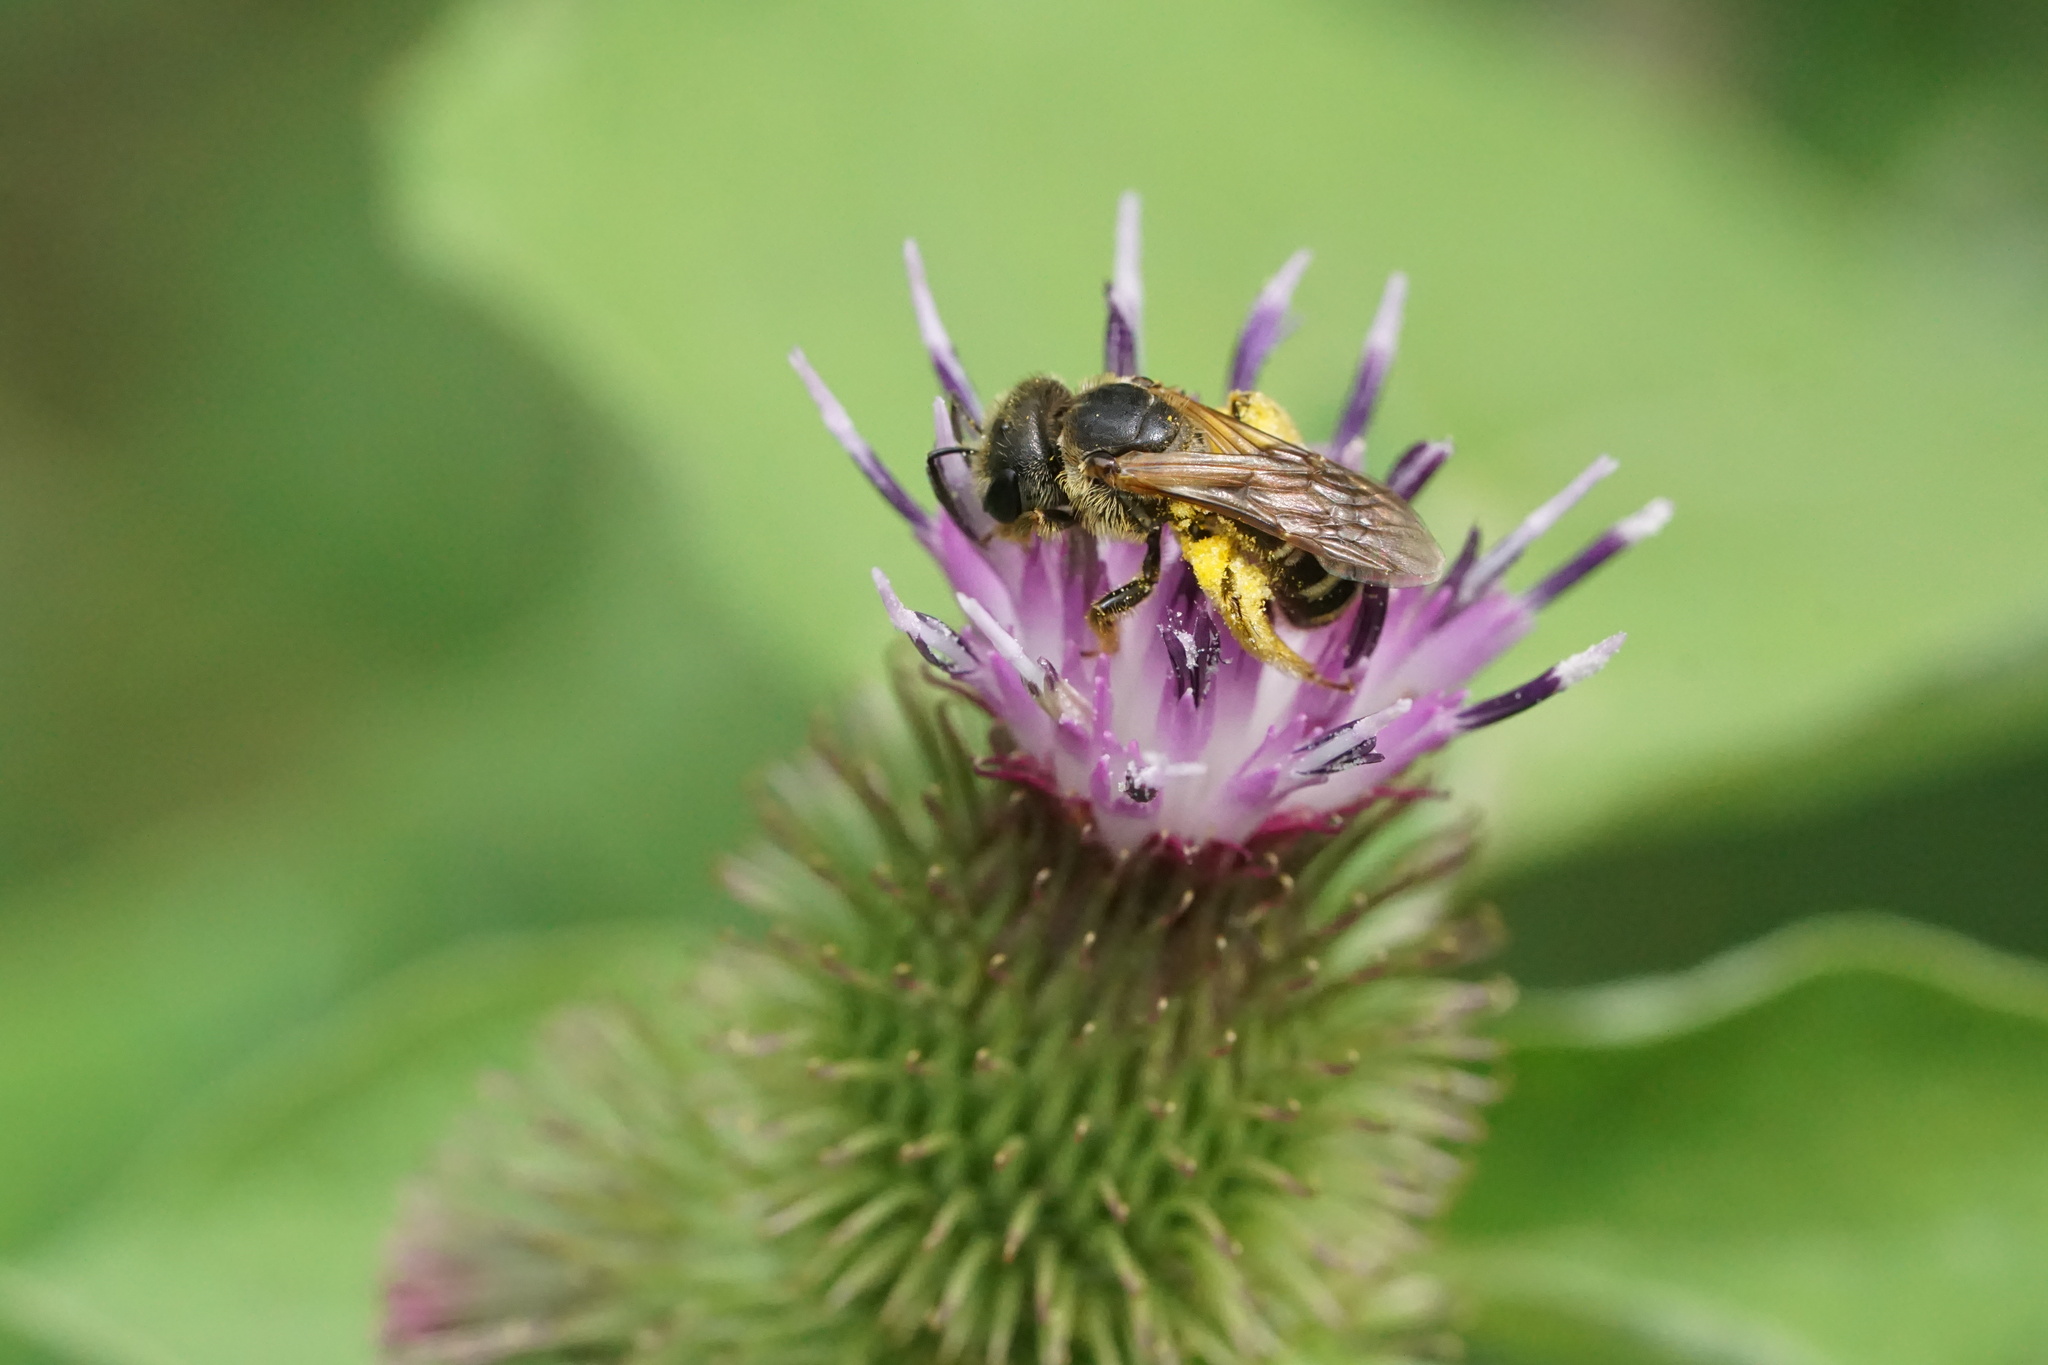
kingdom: Animalia
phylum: Arthropoda
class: Insecta
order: Hymenoptera
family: Halictidae
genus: Halictus
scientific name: Halictus ligatus
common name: Ligated furrow bee
